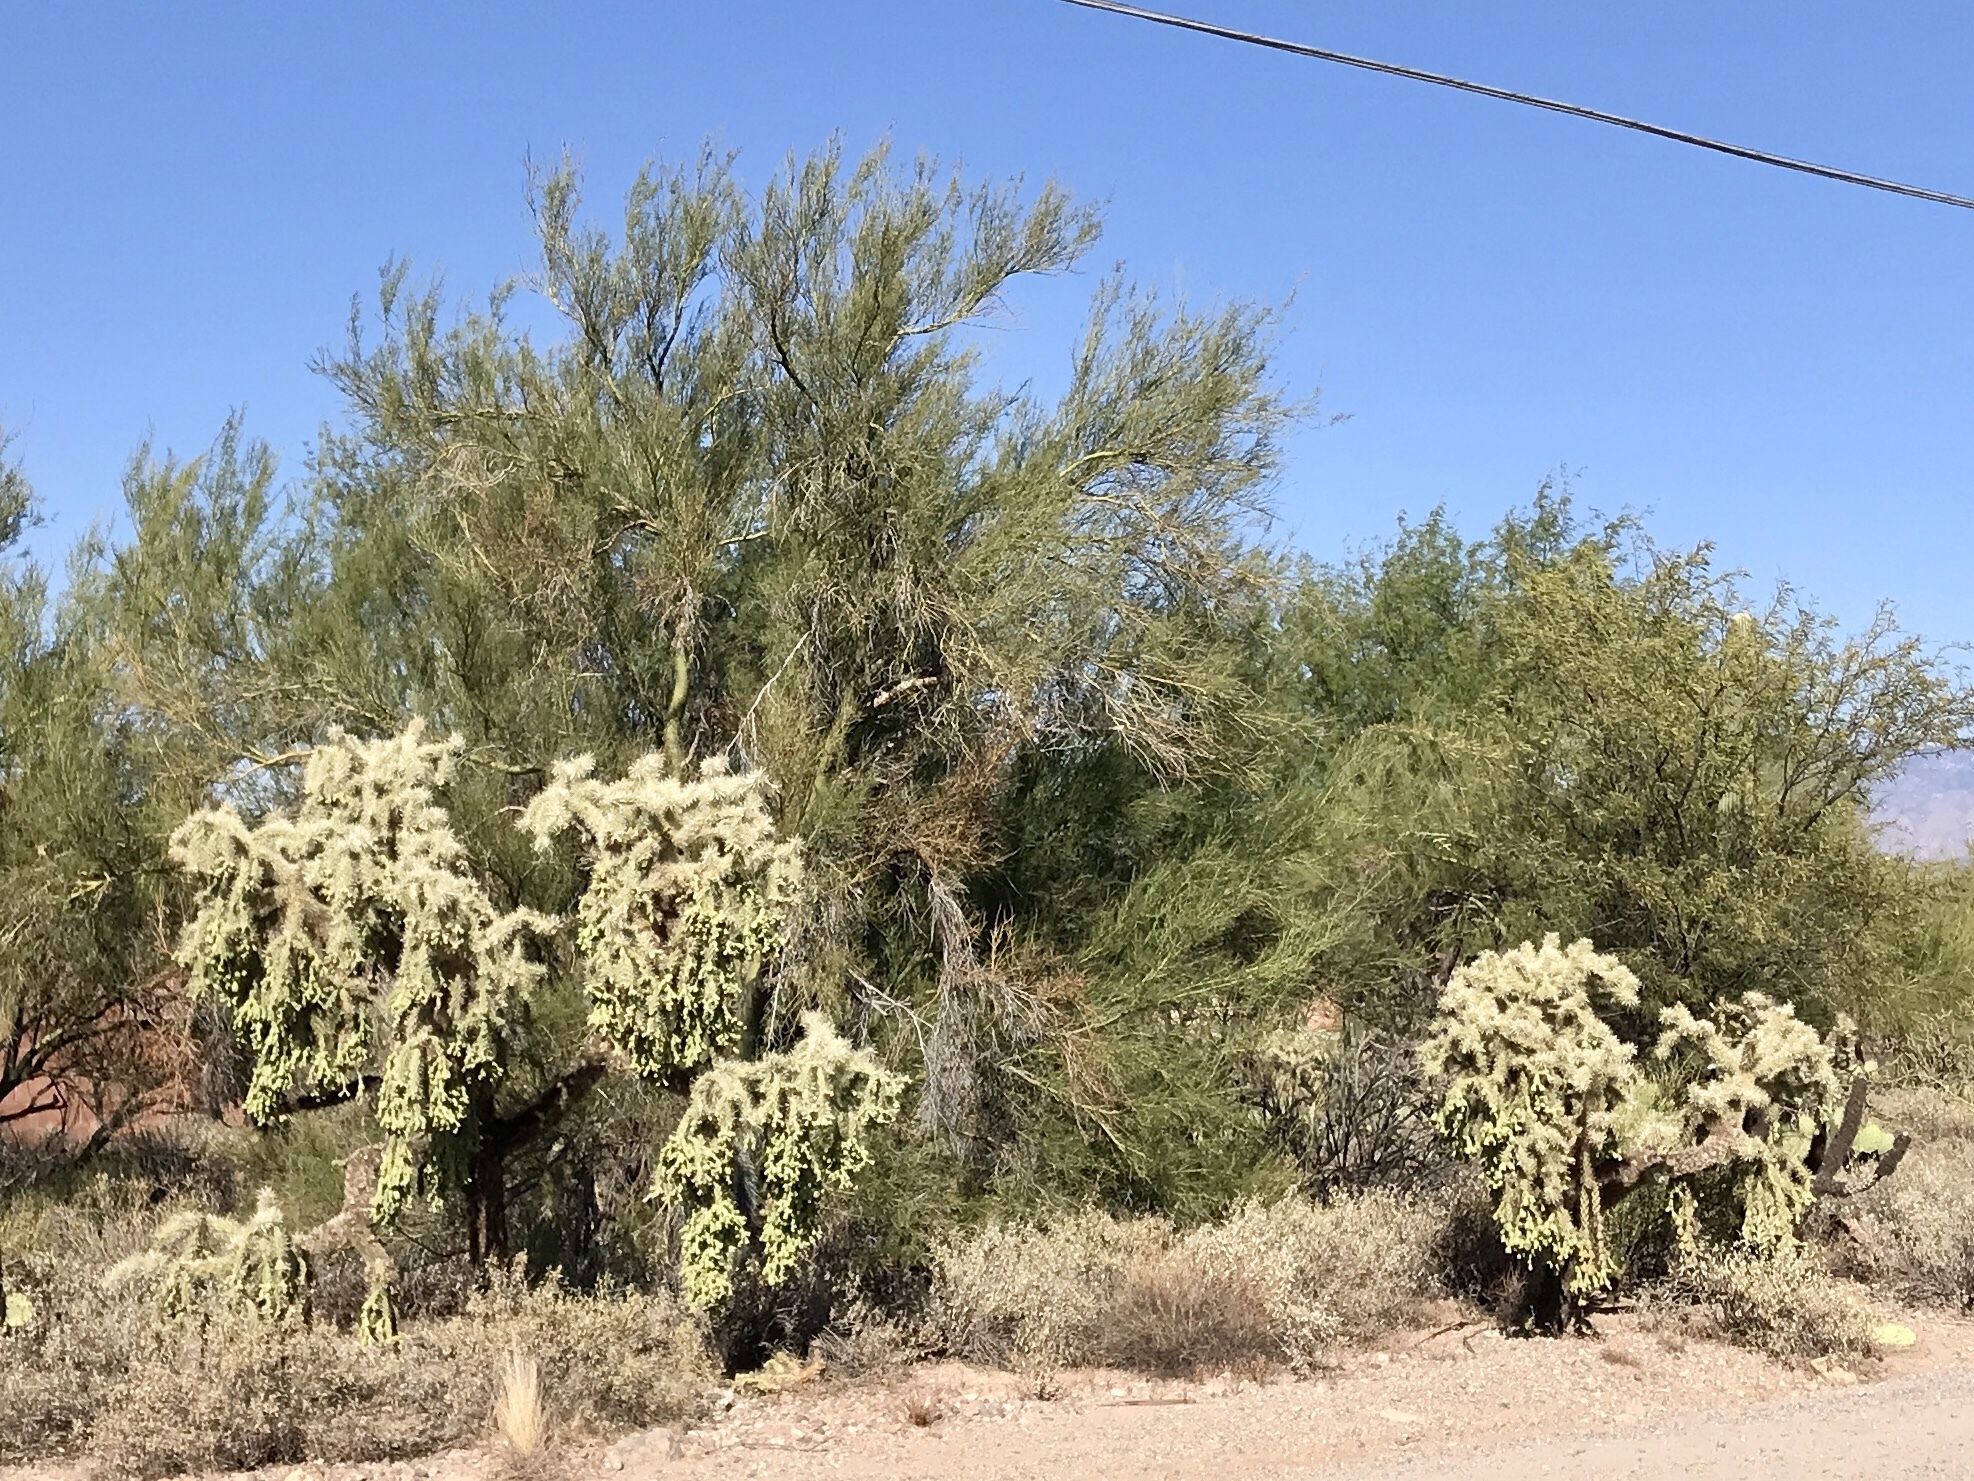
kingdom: Plantae
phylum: Tracheophyta
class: Magnoliopsida
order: Caryophyllales
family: Cactaceae
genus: Cylindropuntia
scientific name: Cylindropuntia fulgida
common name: Jumping cholla
